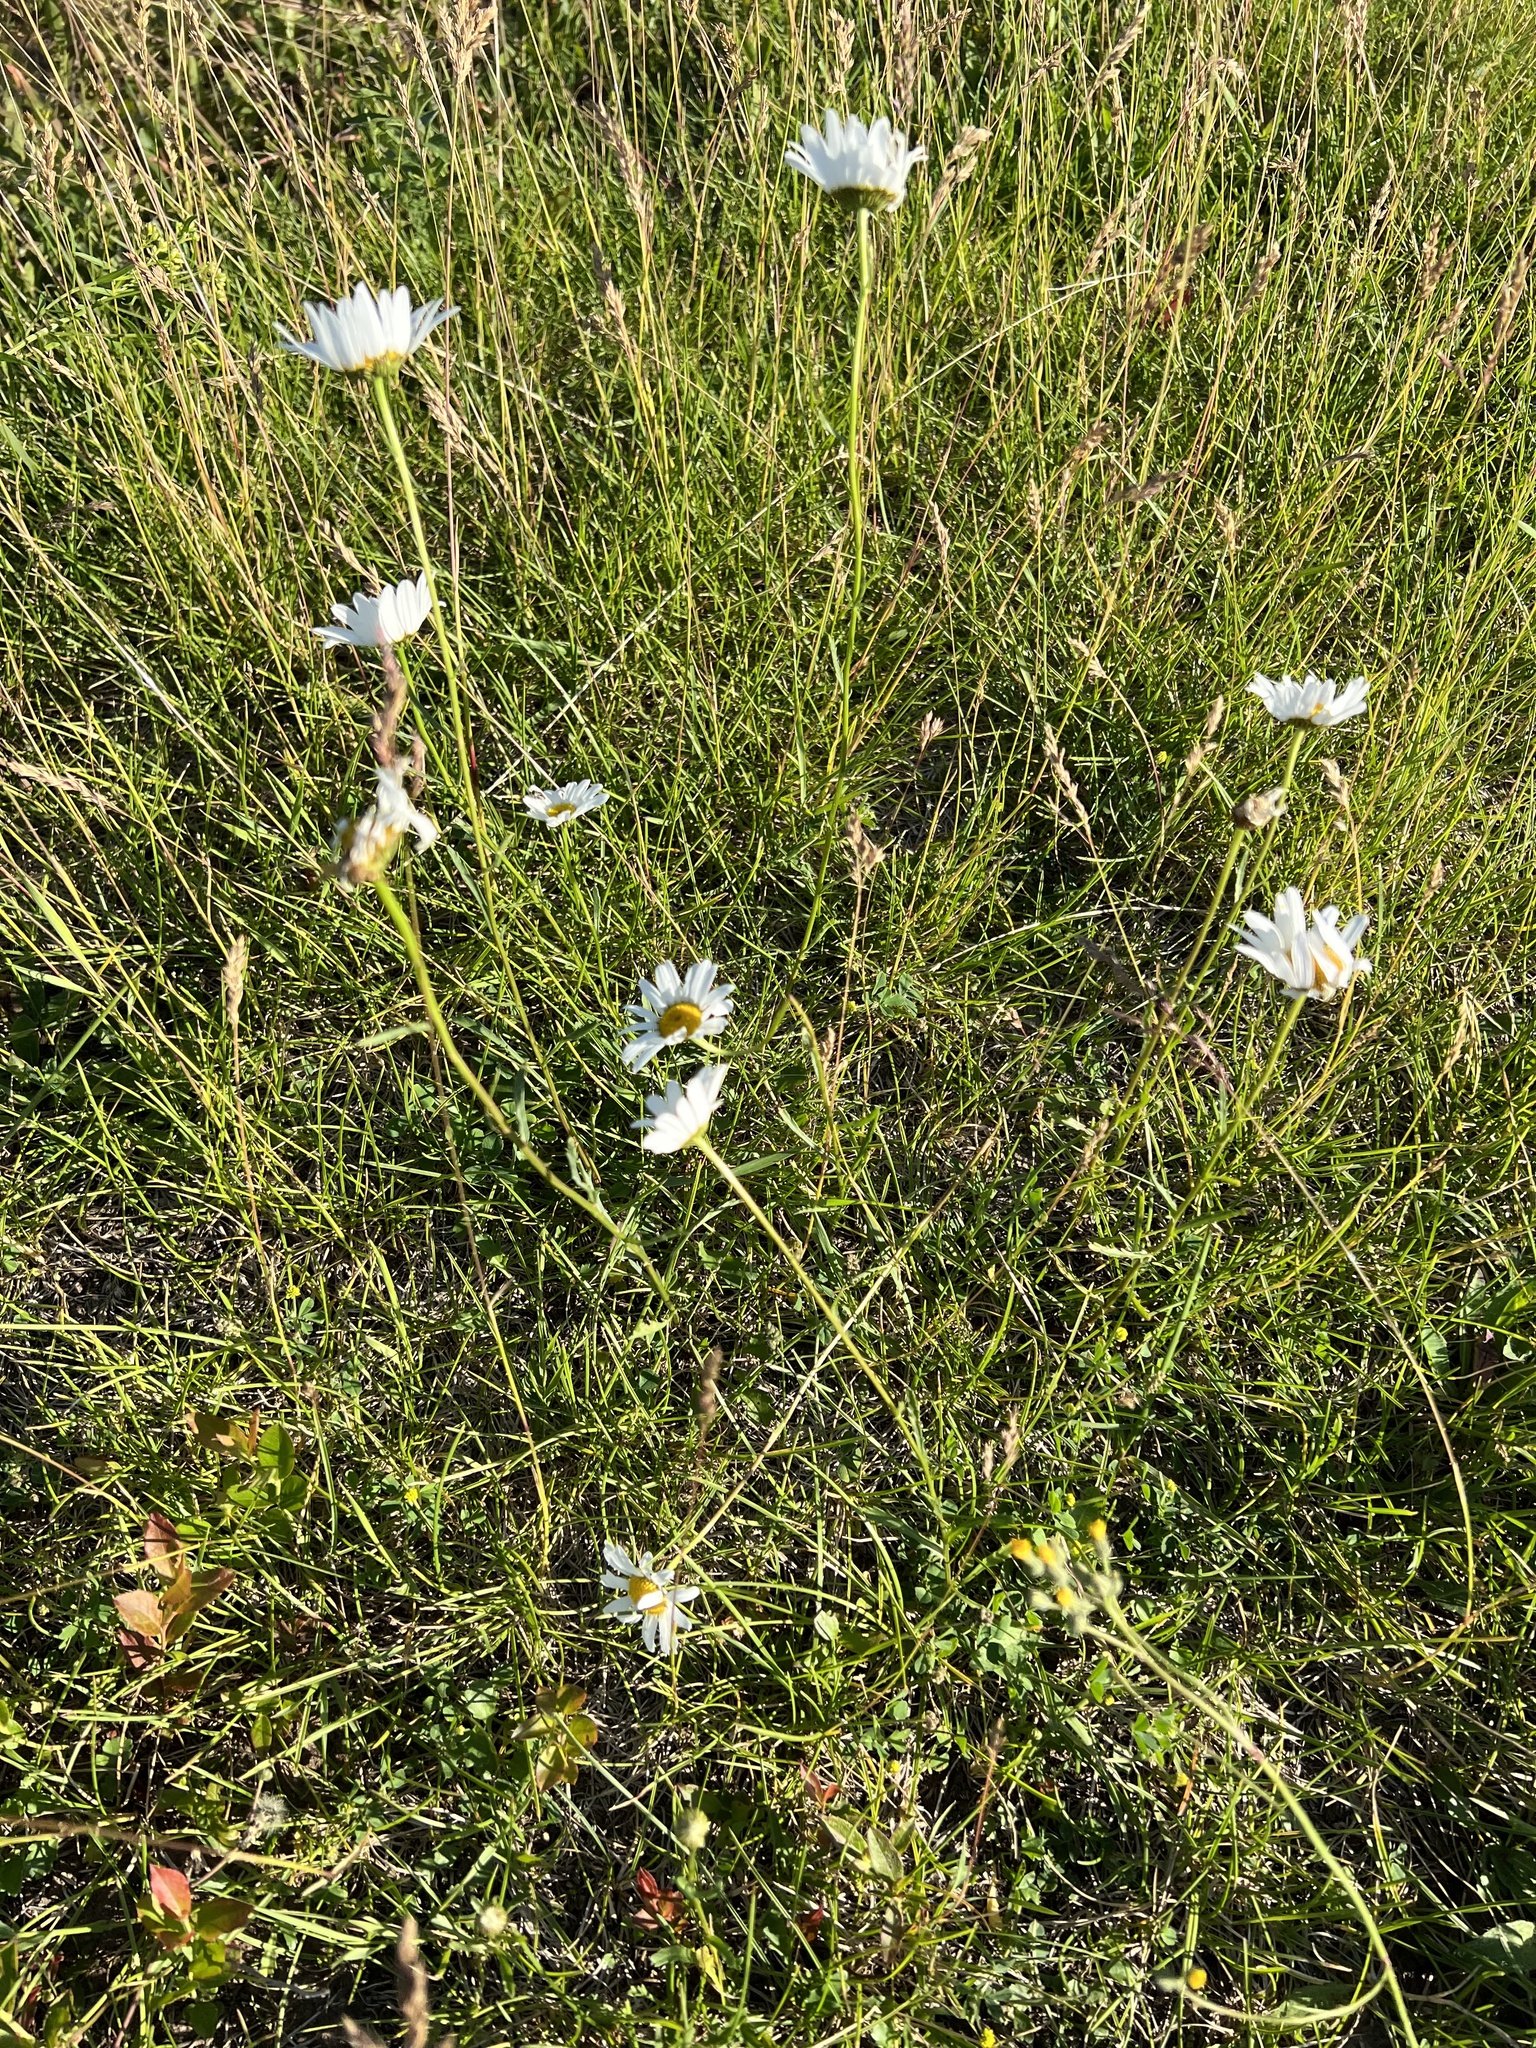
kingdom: Plantae
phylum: Tracheophyta
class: Magnoliopsida
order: Asterales
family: Asteraceae
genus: Leucanthemum
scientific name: Leucanthemum vulgare
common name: Oxeye daisy
